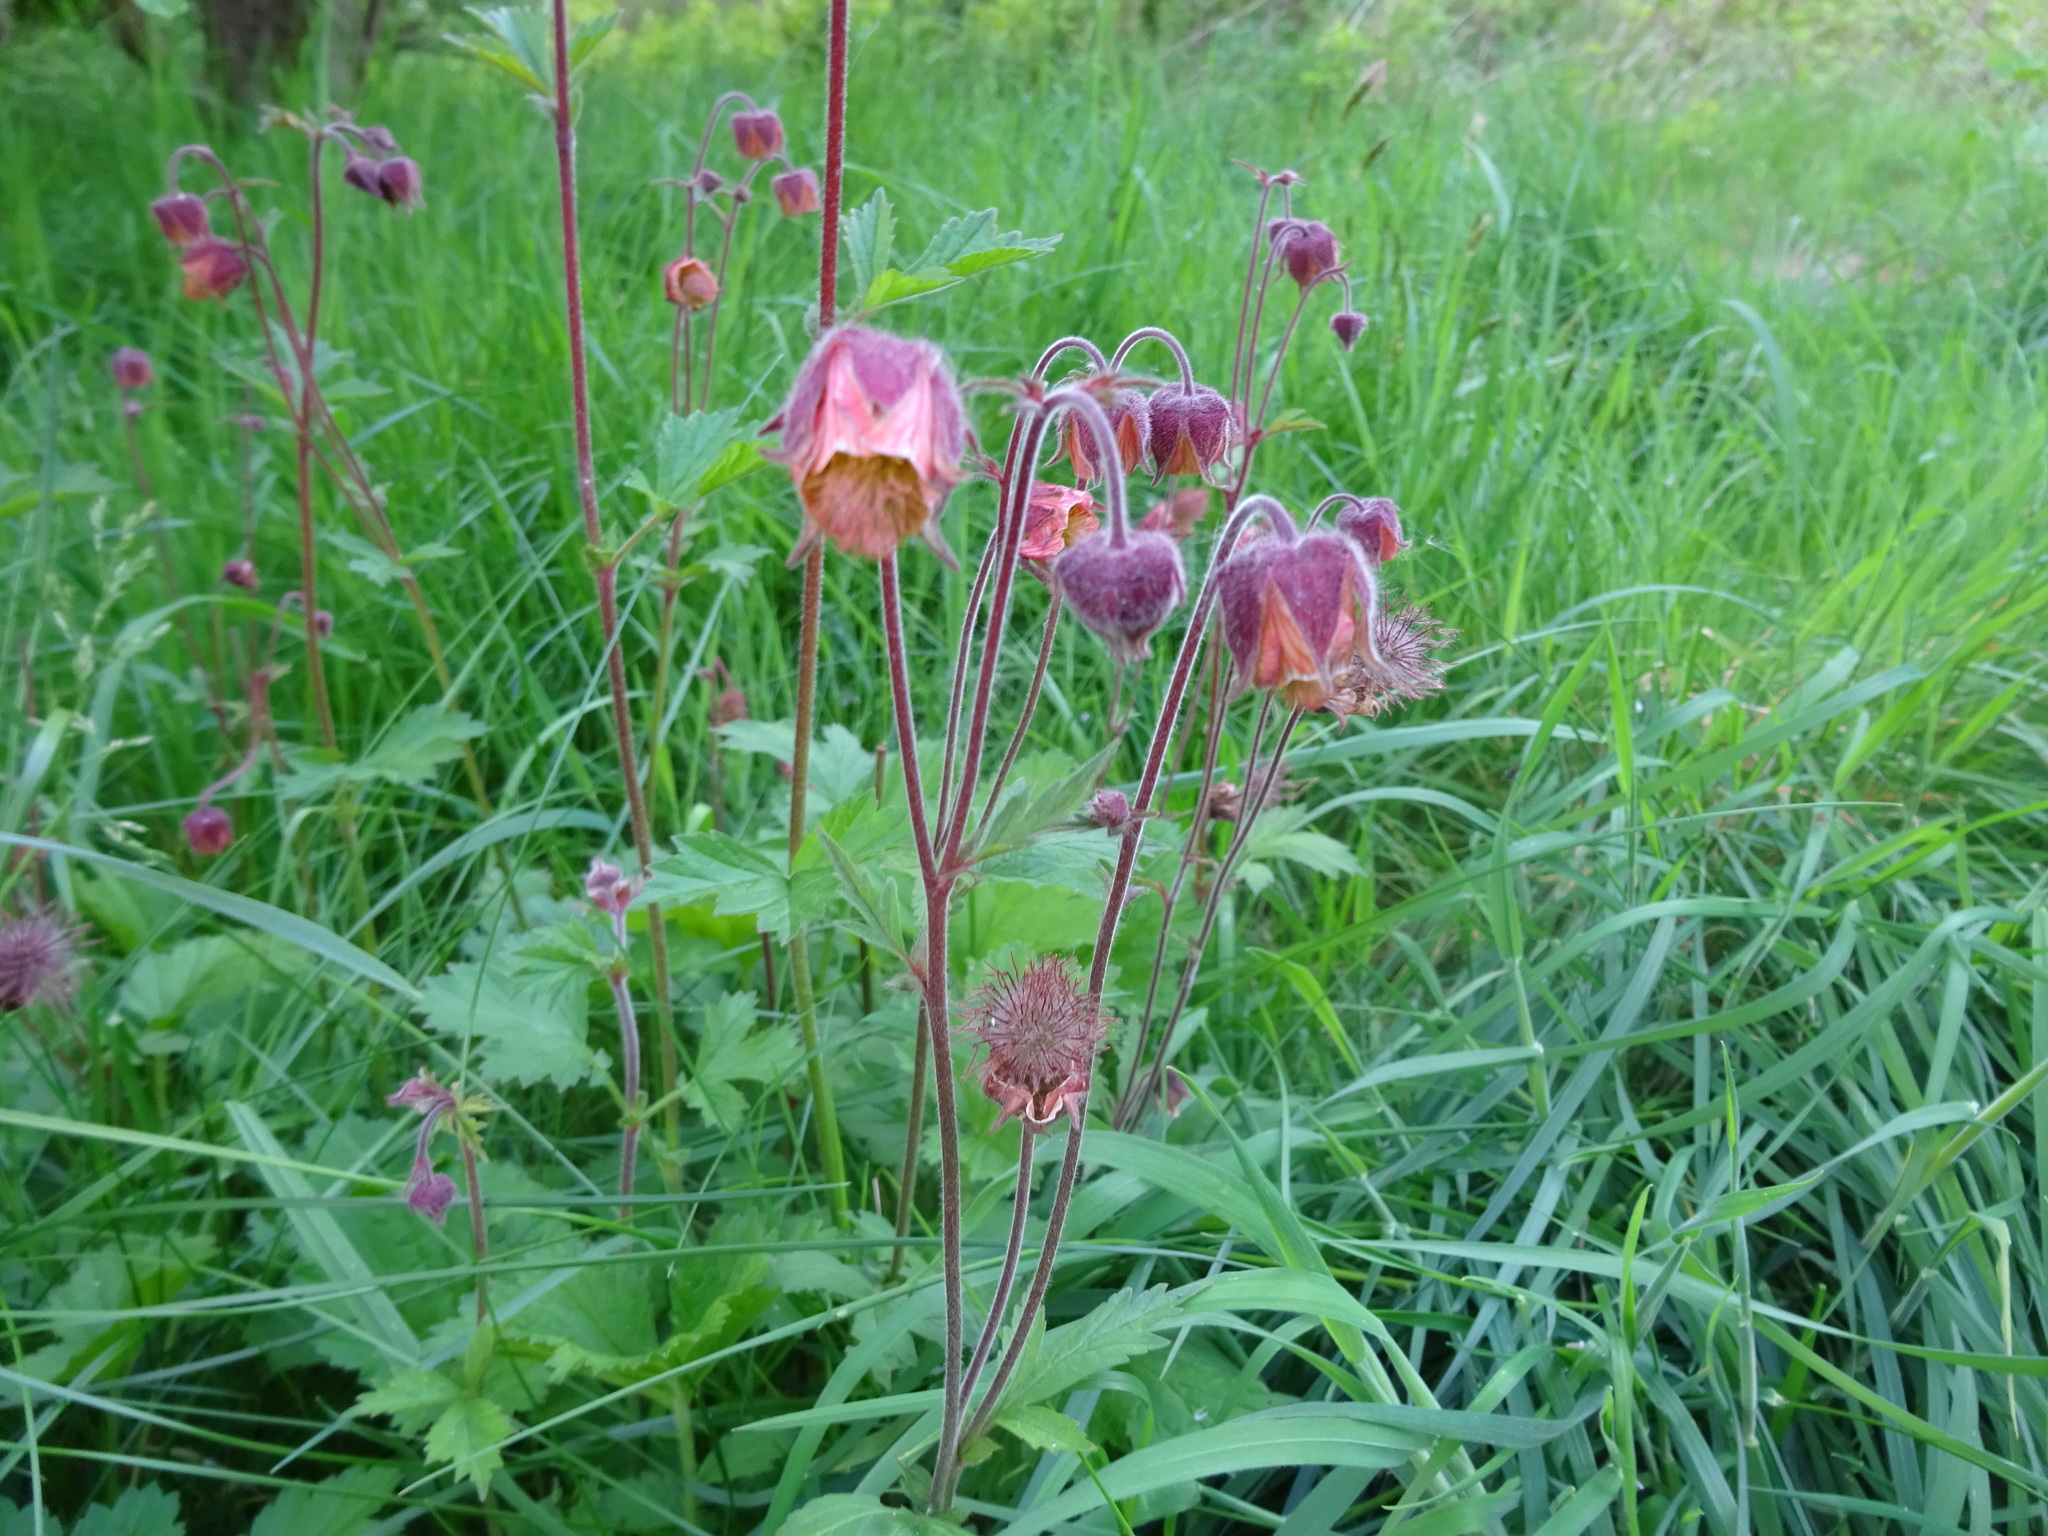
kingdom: Plantae
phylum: Tracheophyta
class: Magnoliopsida
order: Rosales
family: Rosaceae
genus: Geum
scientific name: Geum rivale
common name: Water avens
